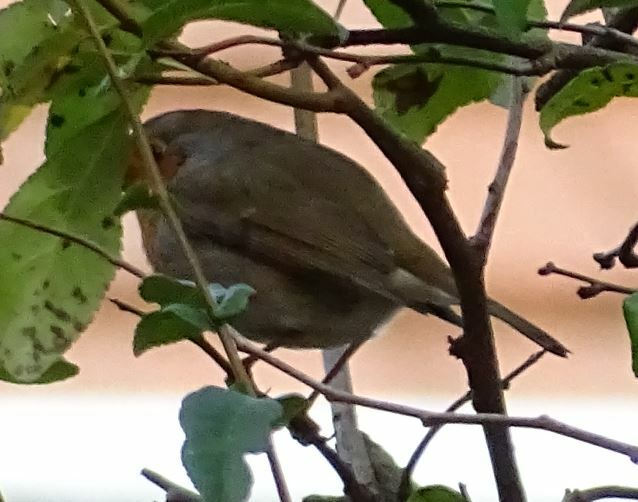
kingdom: Animalia
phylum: Chordata
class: Aves
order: Passeriformes
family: Muscicapidae
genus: Erithacus
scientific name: Erithacus rubecula
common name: European robin
